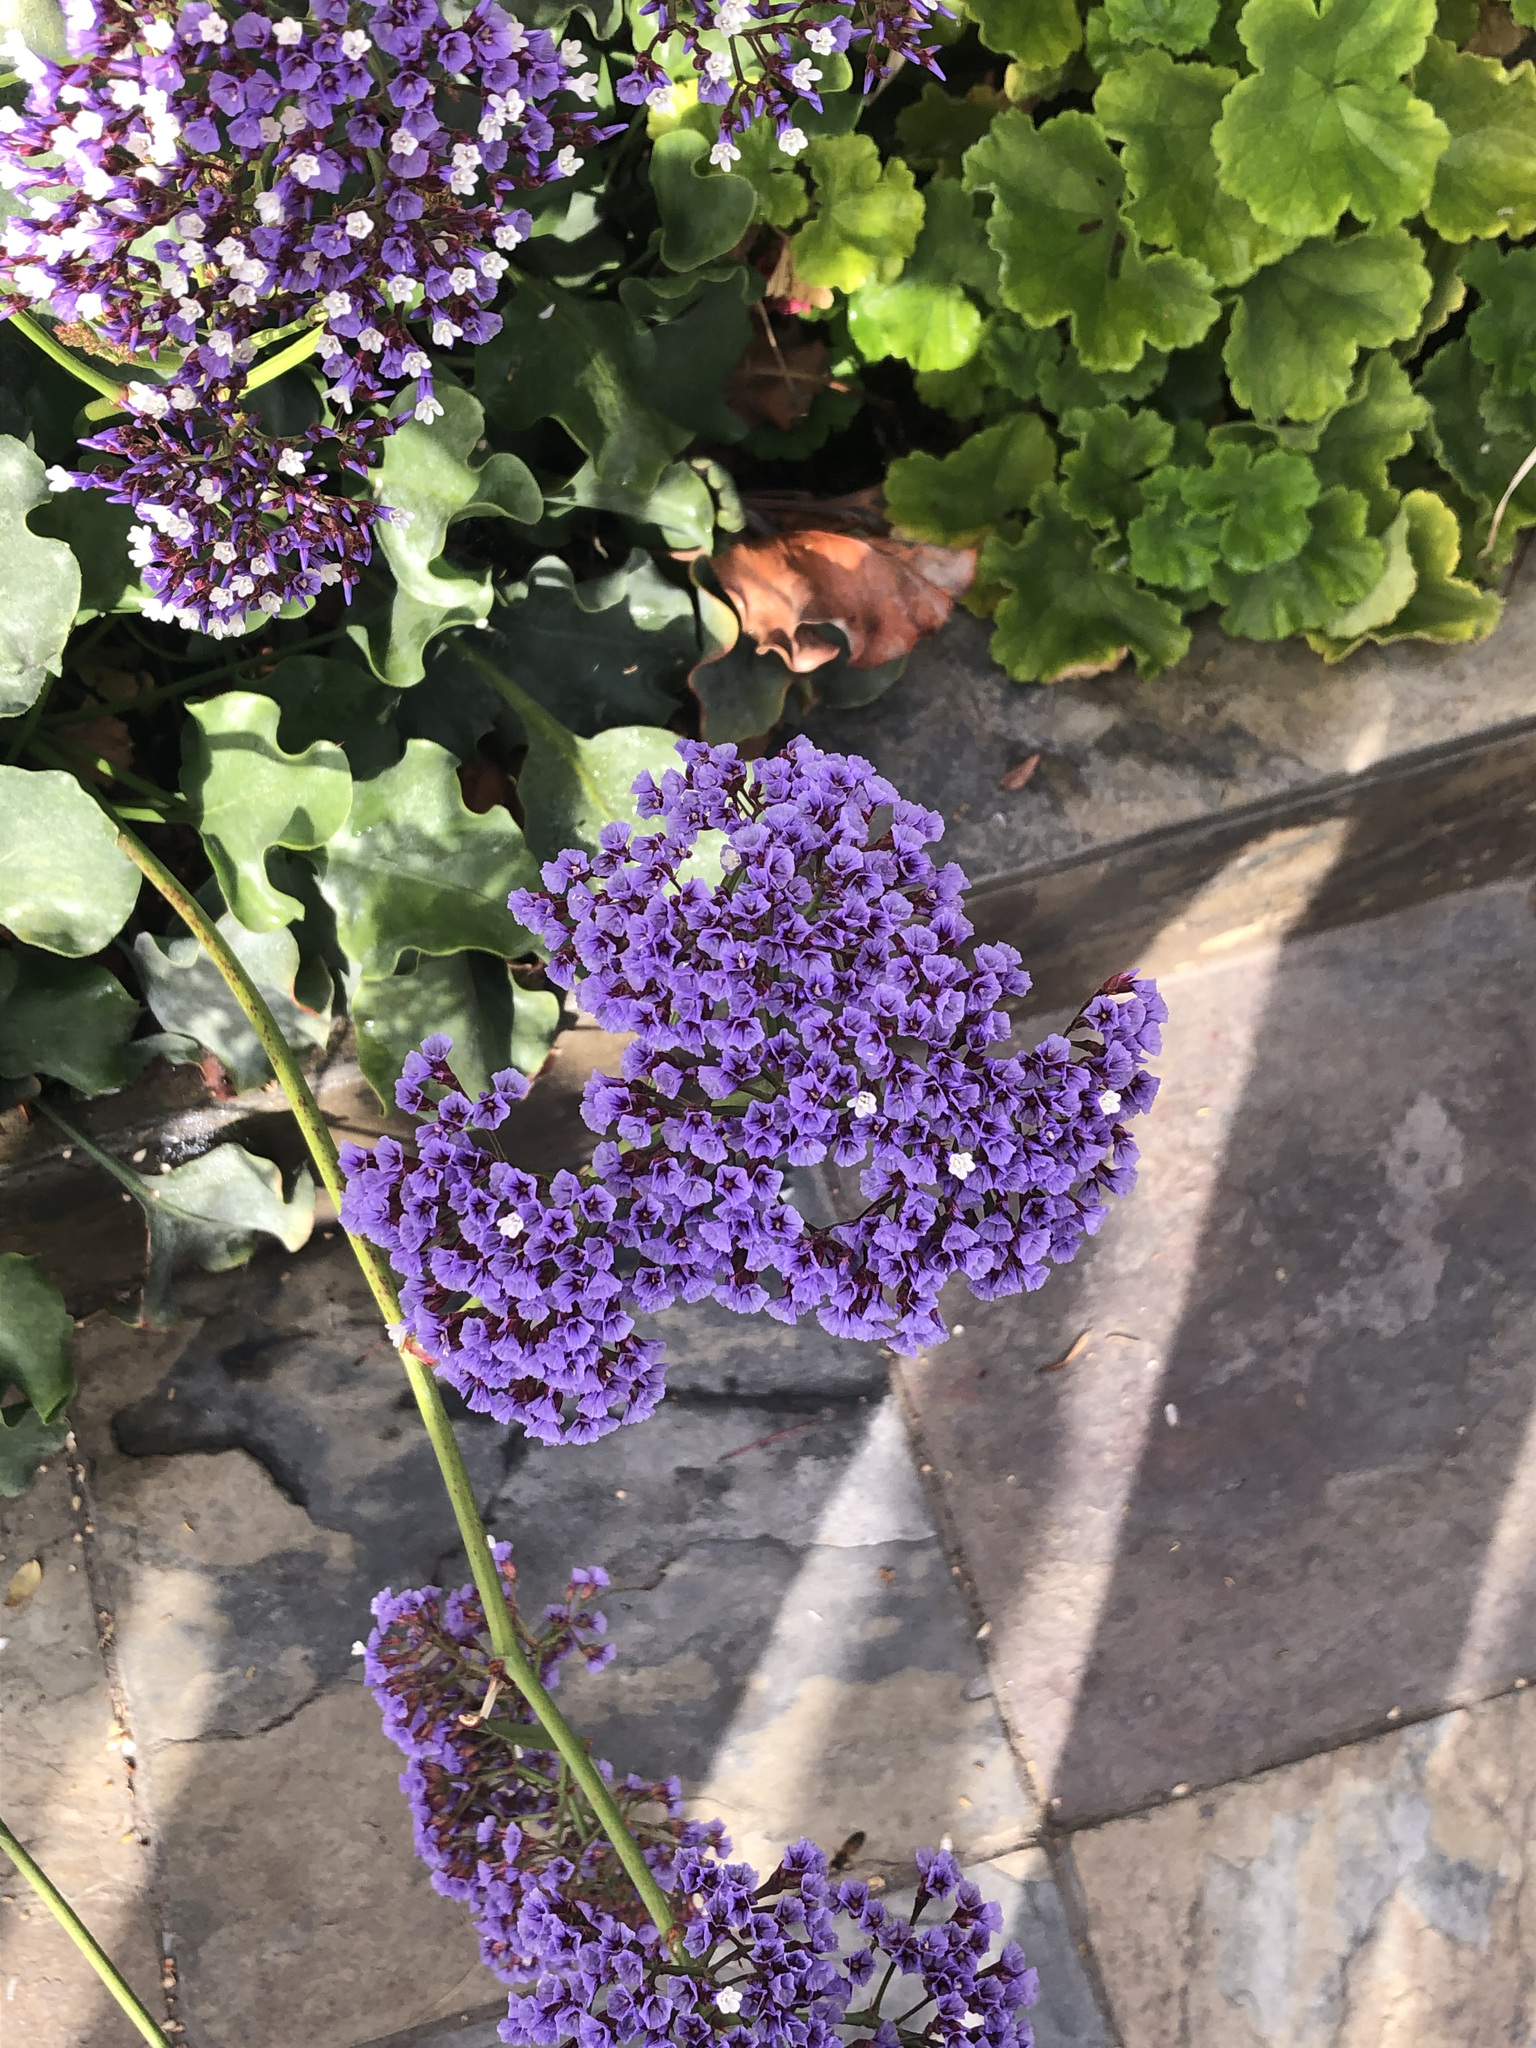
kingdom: Plantae
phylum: Tracheophyta
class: Magnoliopsida
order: Caryophyllales
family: Plumbaginaceae
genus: Limonium
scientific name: Limonium perezii
